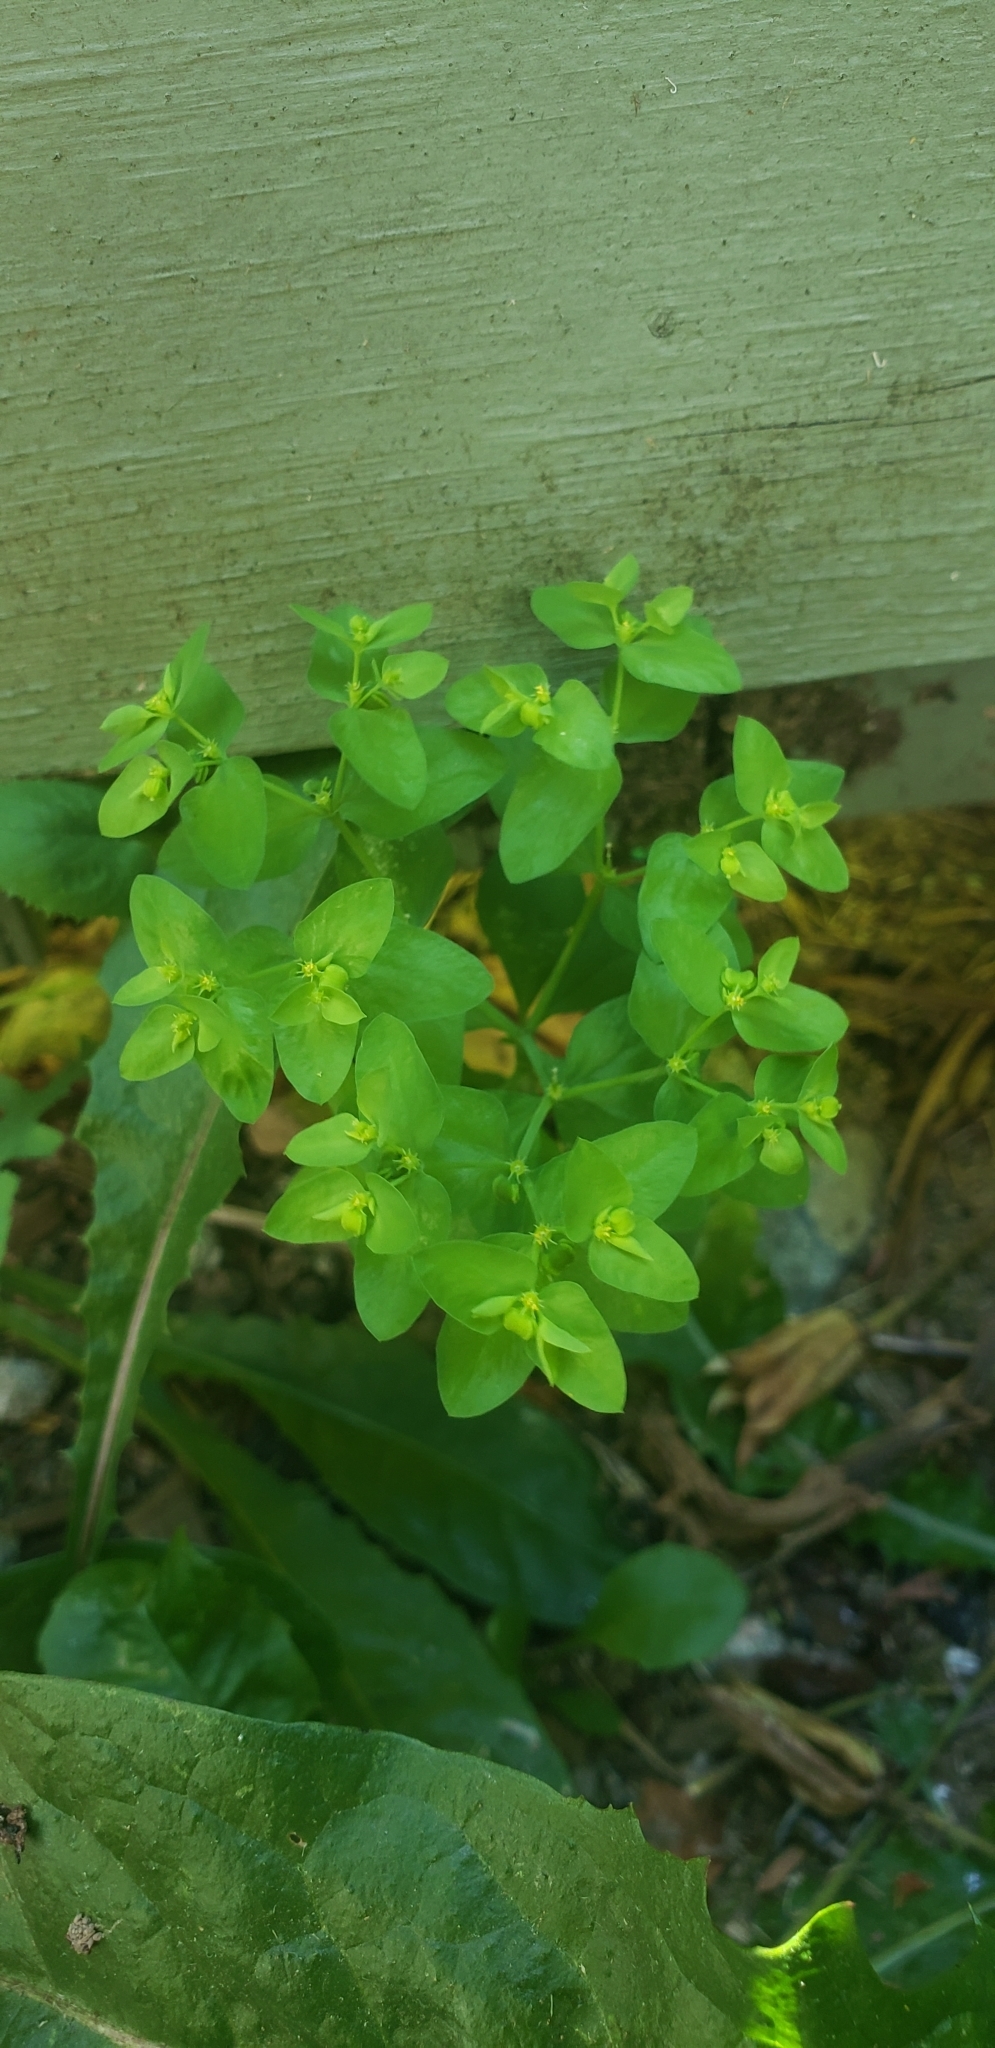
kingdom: Plantae
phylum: Tracheophyta
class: Magnoliopsida
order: Malpighiales
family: Euphorbiaceae
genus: Euphorbia
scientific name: Euphorbia peplus
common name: Petty spurge
